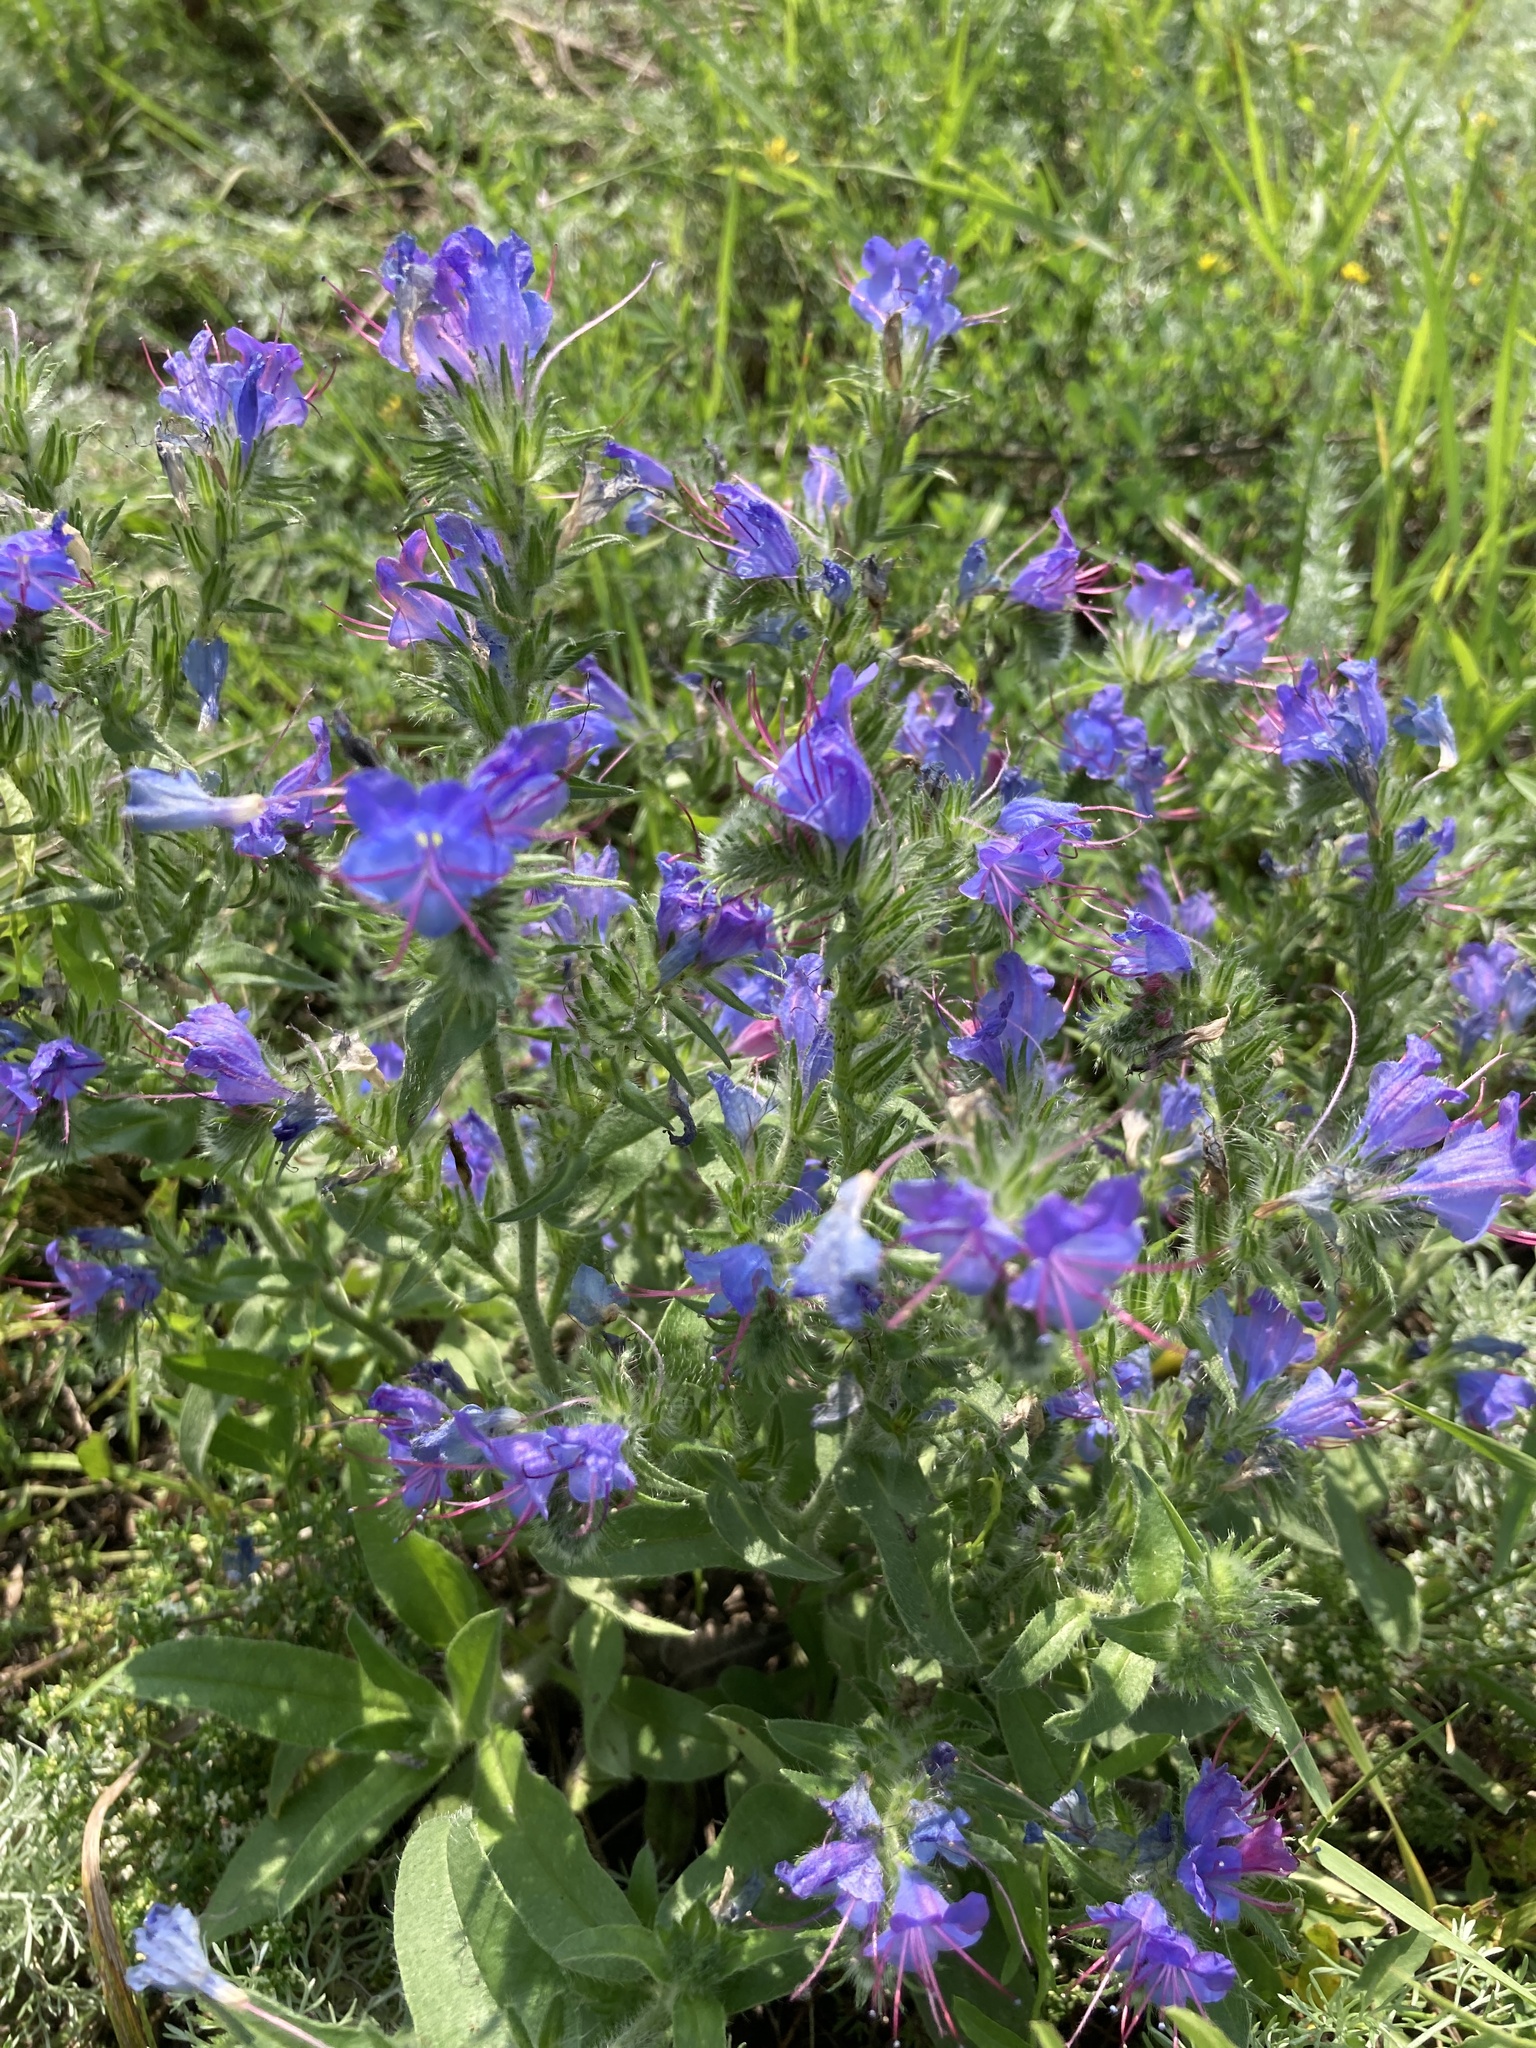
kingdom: Plantae
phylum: Tracheophyta
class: Magnoliopsida
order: Boraginales
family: Boraginaceae
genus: Echium
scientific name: Echium vulgare
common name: Common viper's bugloss
